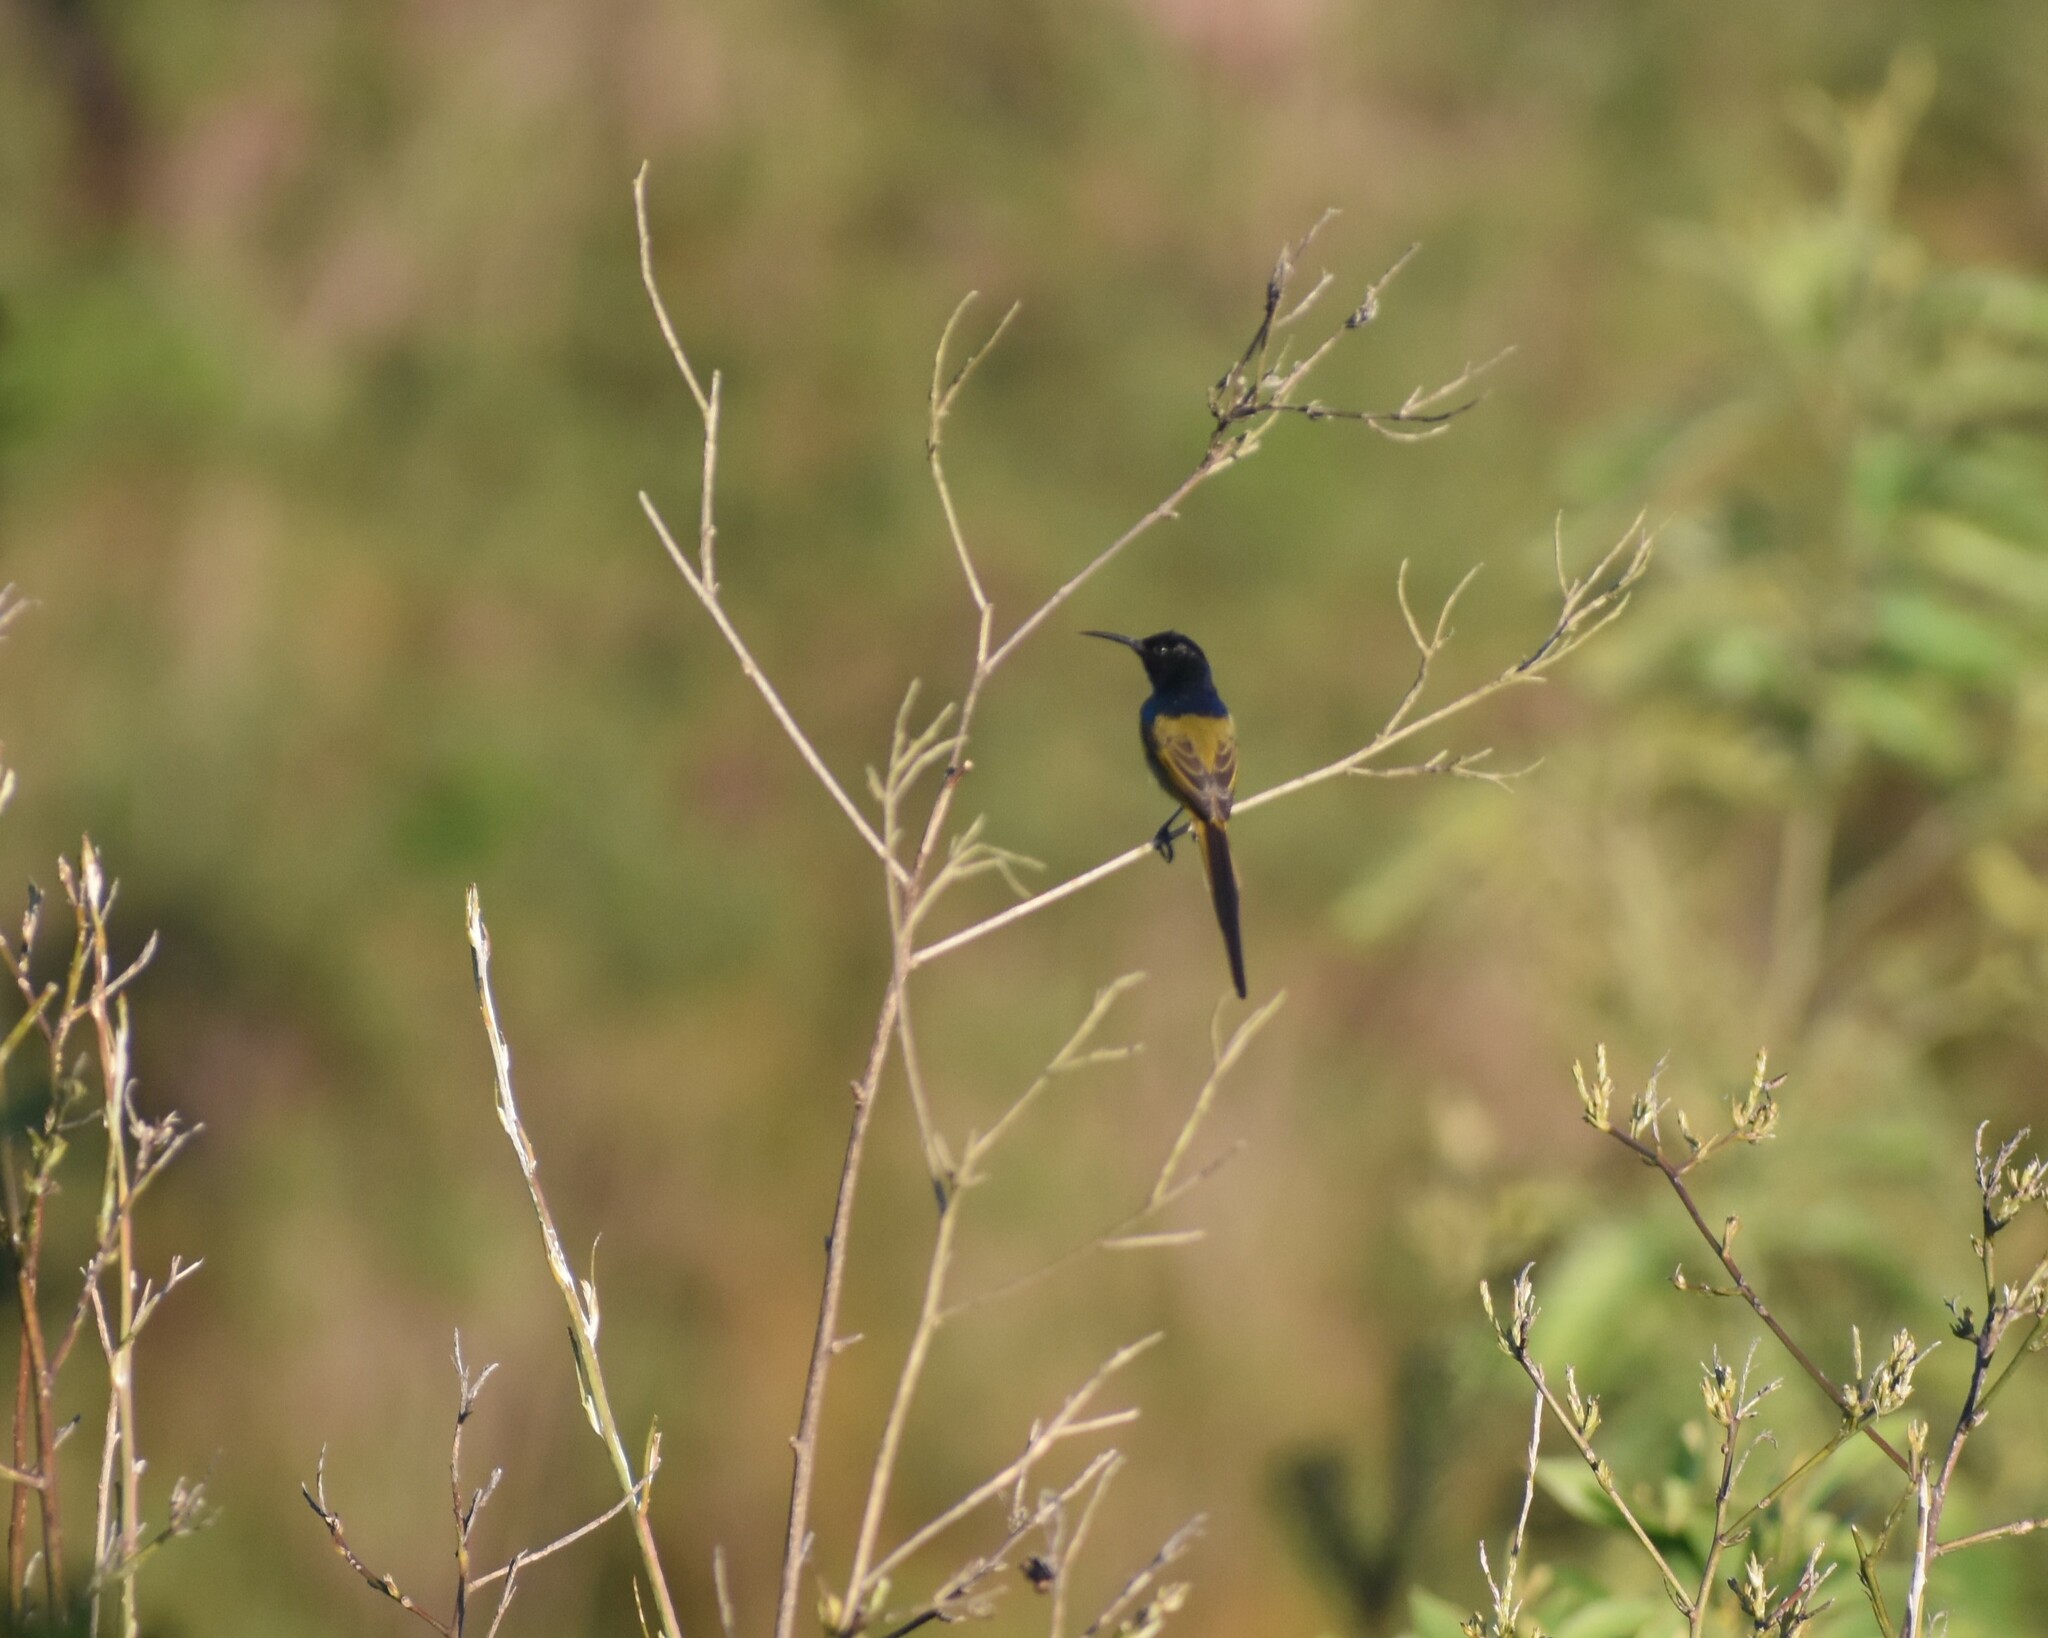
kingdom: Animalia
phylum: Chordata
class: Aves
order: Passeriformes
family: Nectariniidae
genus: Anthobaphes
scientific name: Anthobaphes violacea
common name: Orange-breasted sunbird
